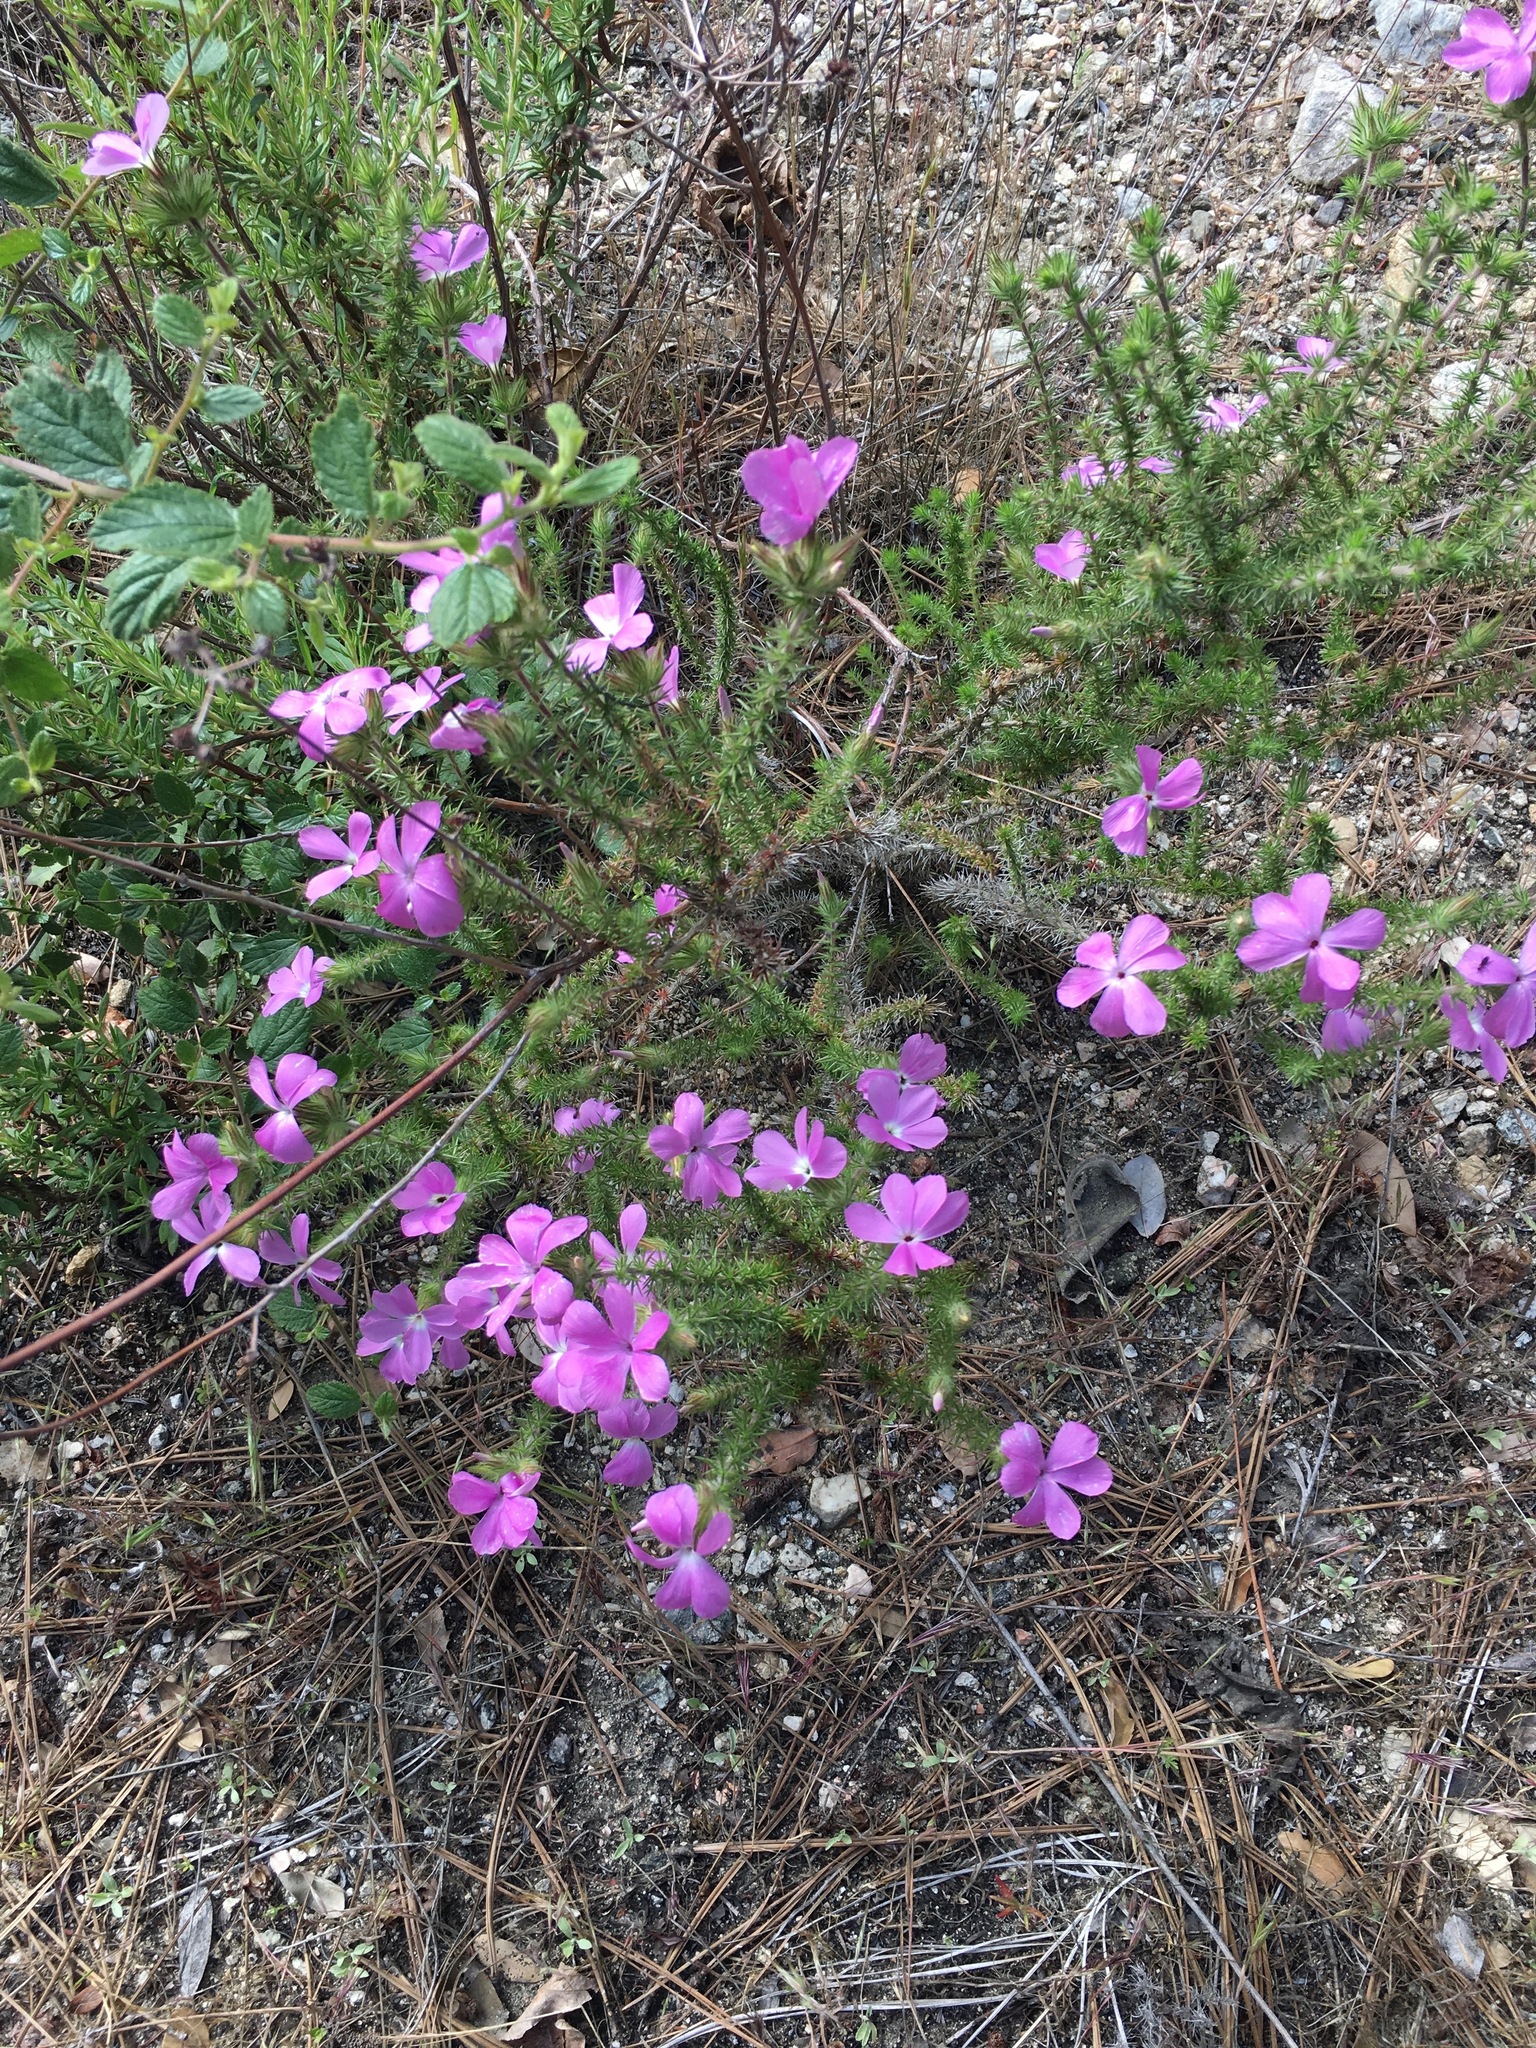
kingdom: Plantae
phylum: Tracheophyta
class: Magnoliopsida
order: Ericales
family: Polemoniaceae
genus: Linanthus
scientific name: Linanthus californicus
